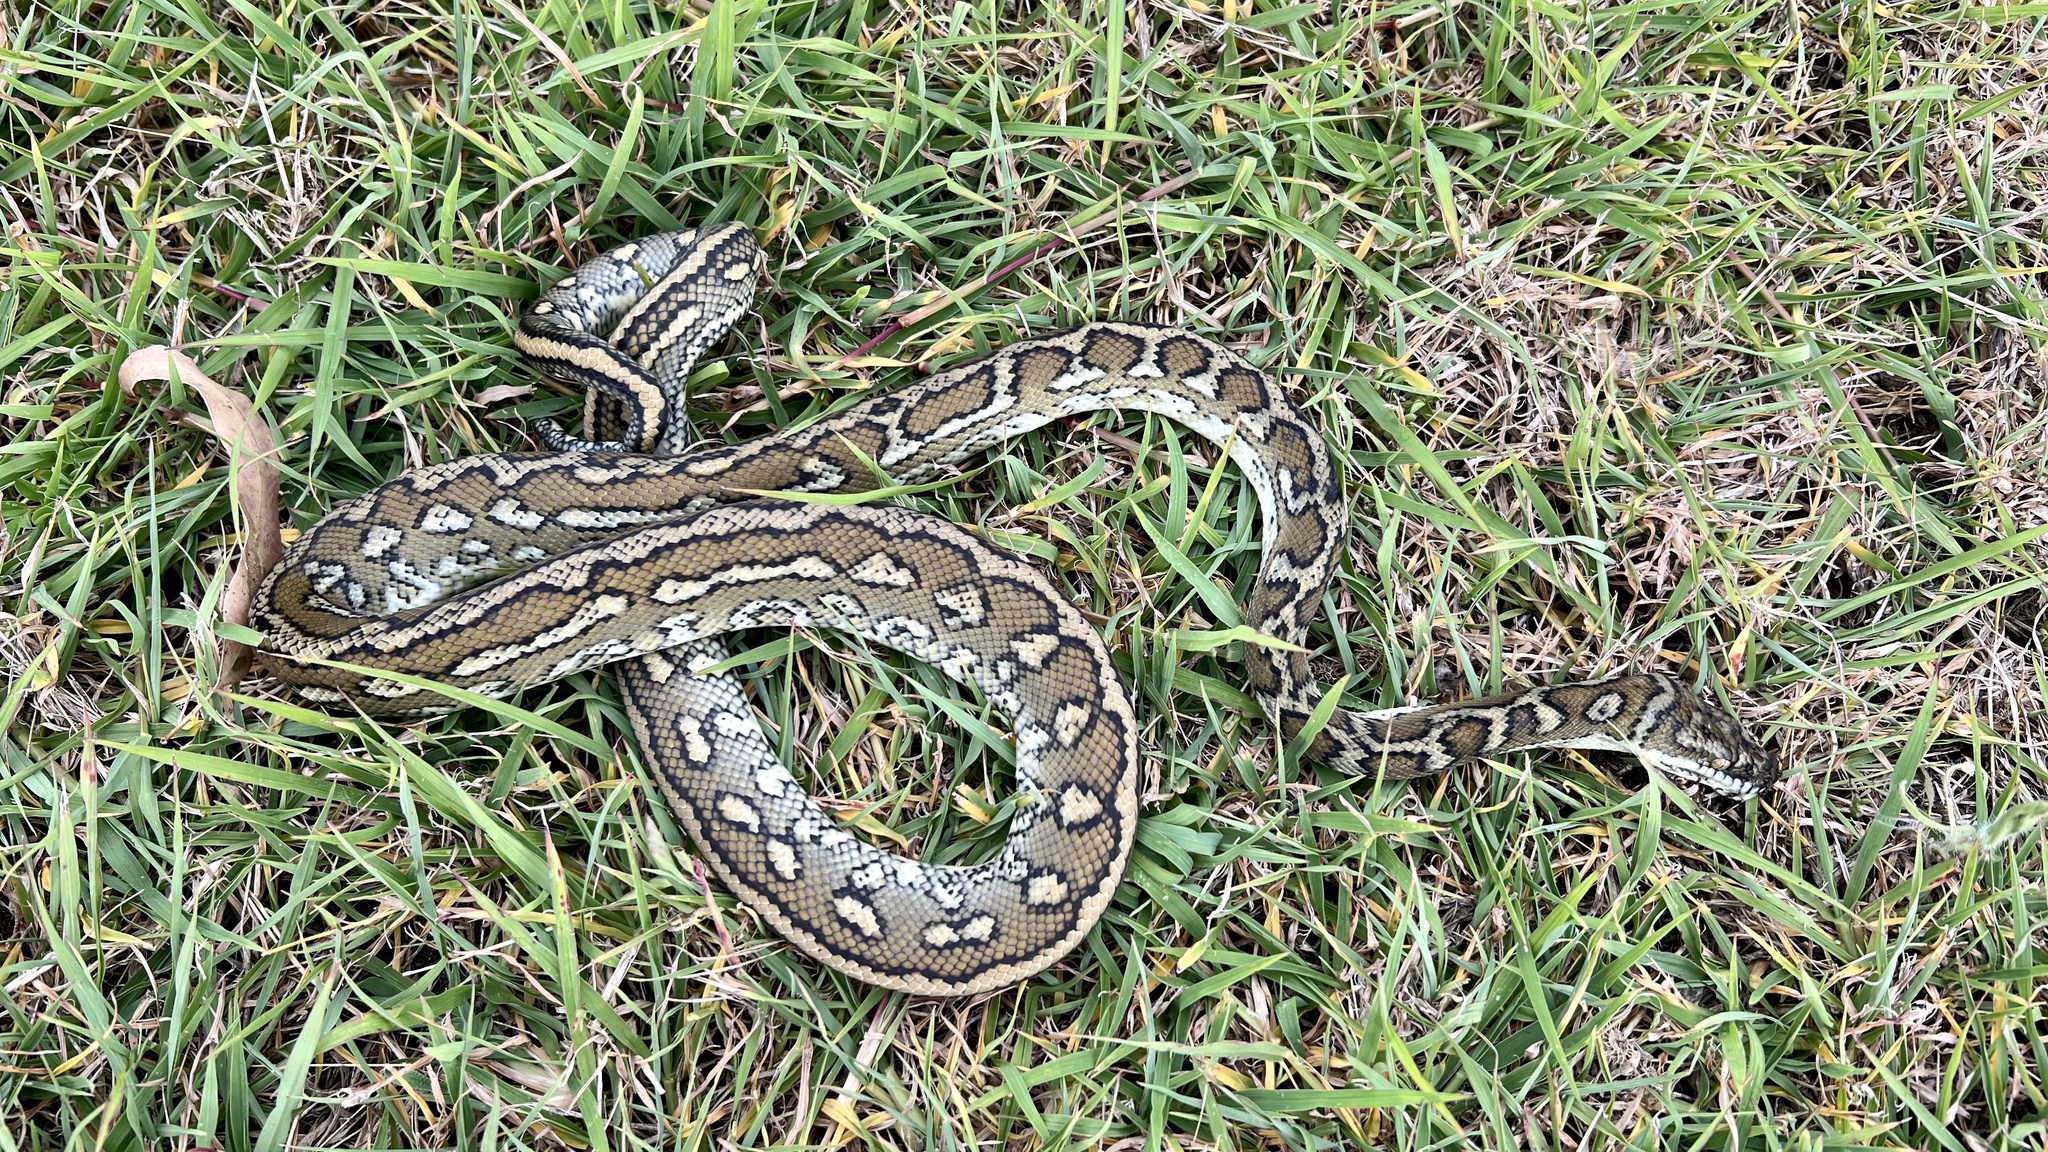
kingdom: Animalia
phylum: Chordata
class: Squamata
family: Pythonidae
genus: Morelia
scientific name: Morelia spilota
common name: Carpet python
